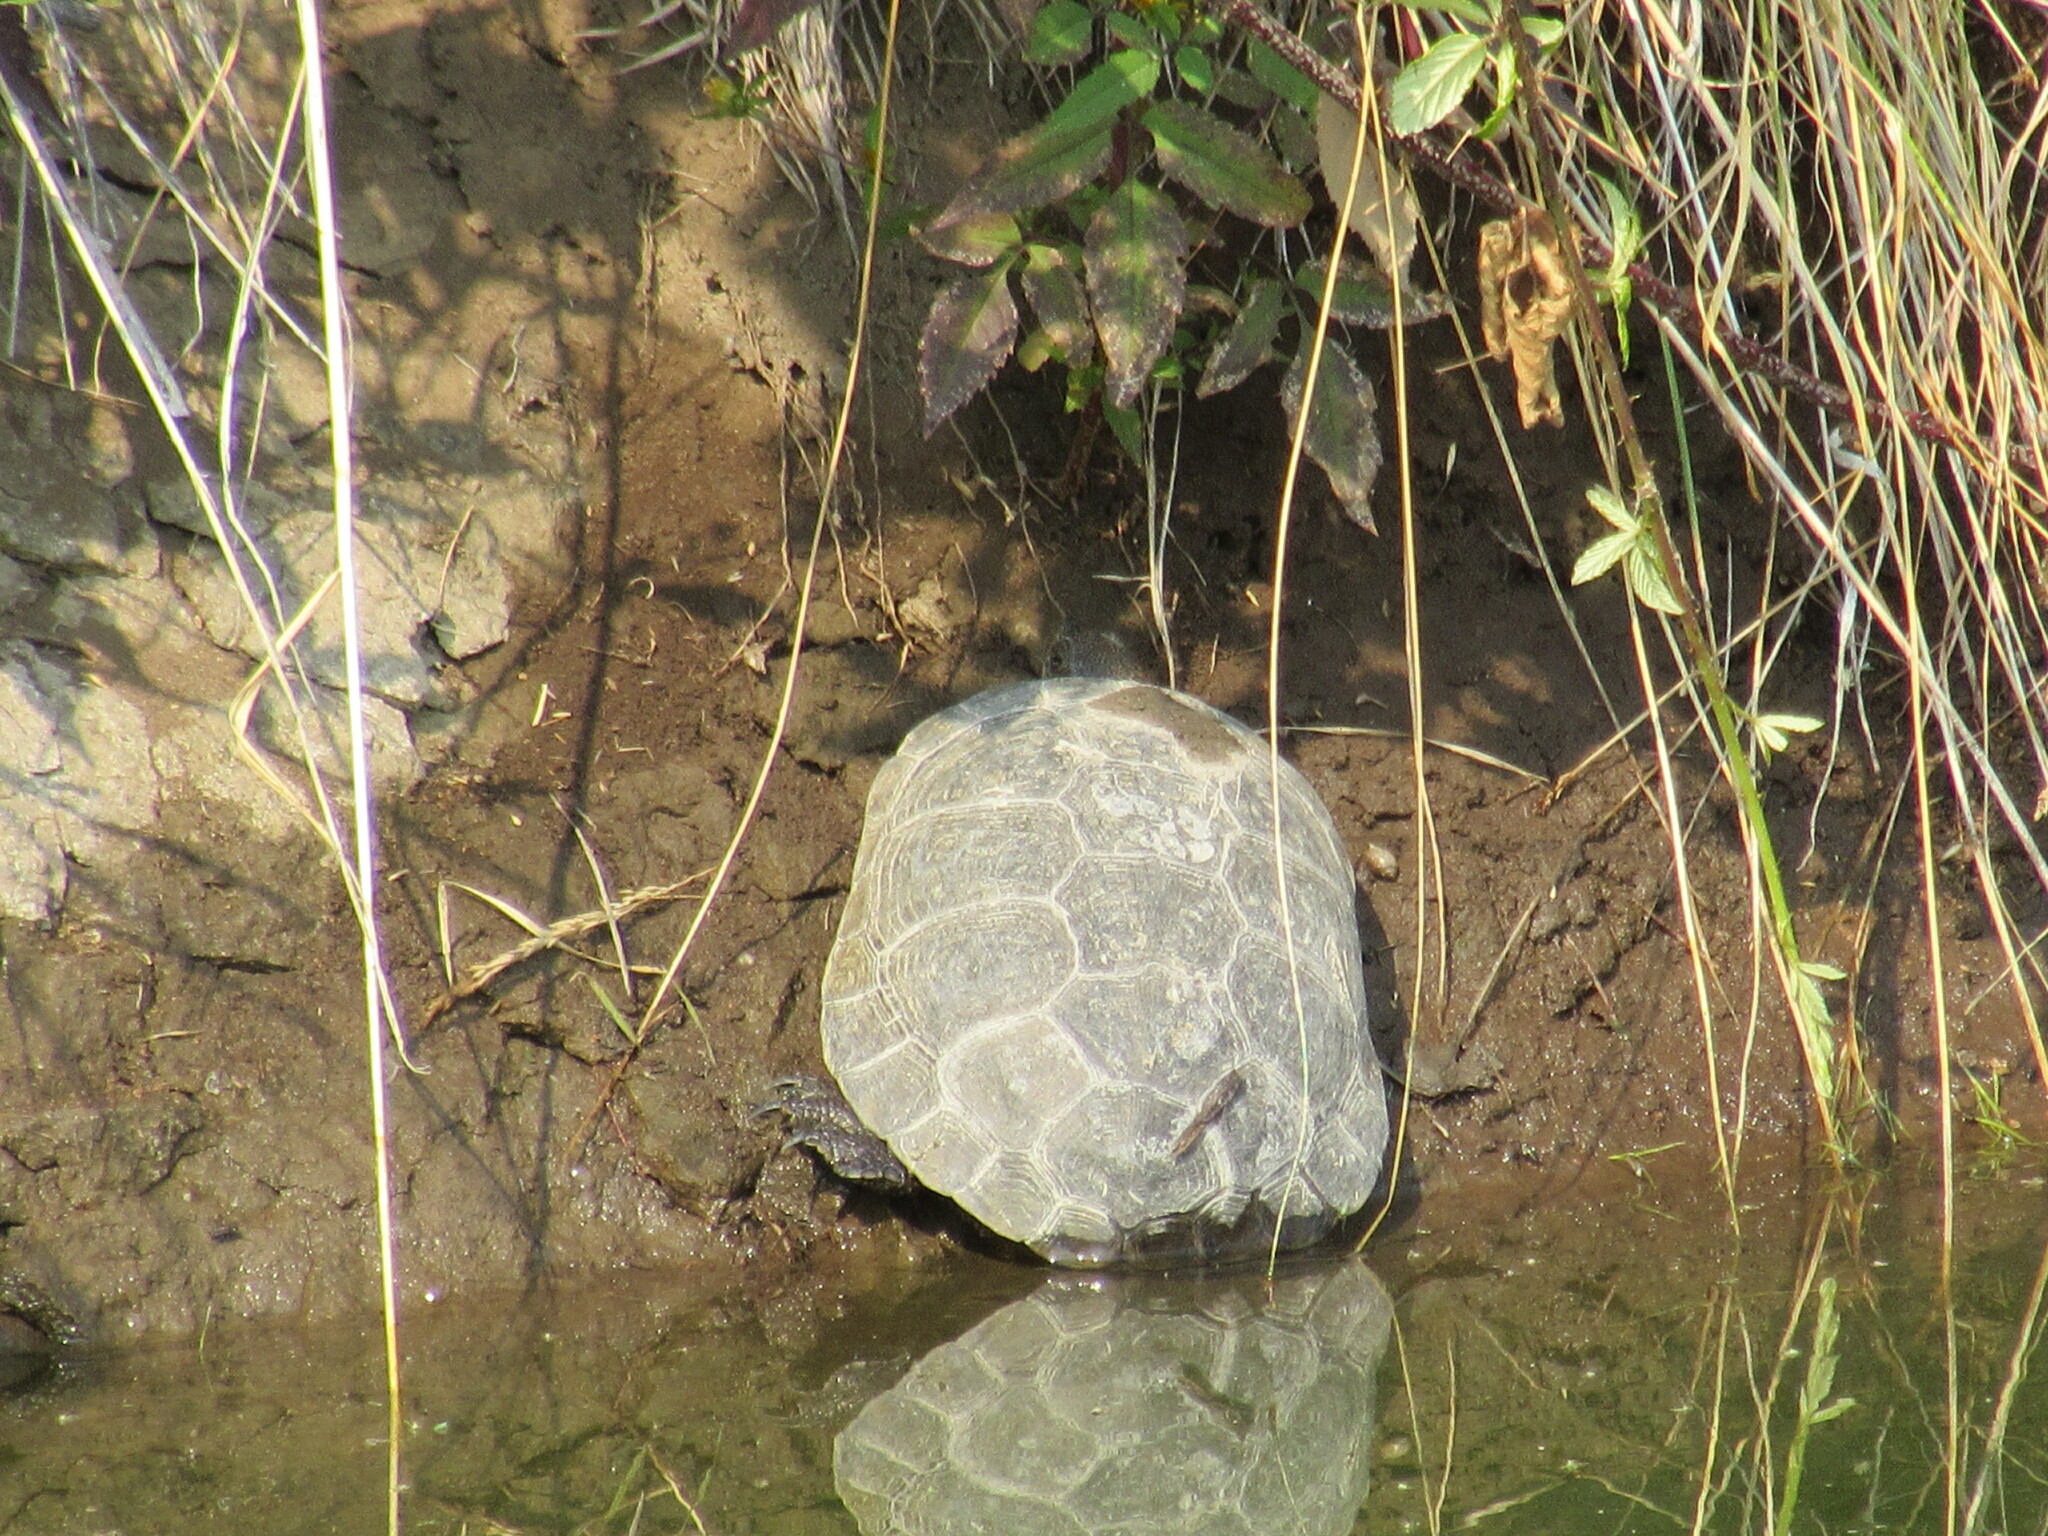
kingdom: Animalia
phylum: Chordata
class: Testudines
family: Emydidae
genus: Actinemys
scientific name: Actinemys marmorata
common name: Western pond turtle
